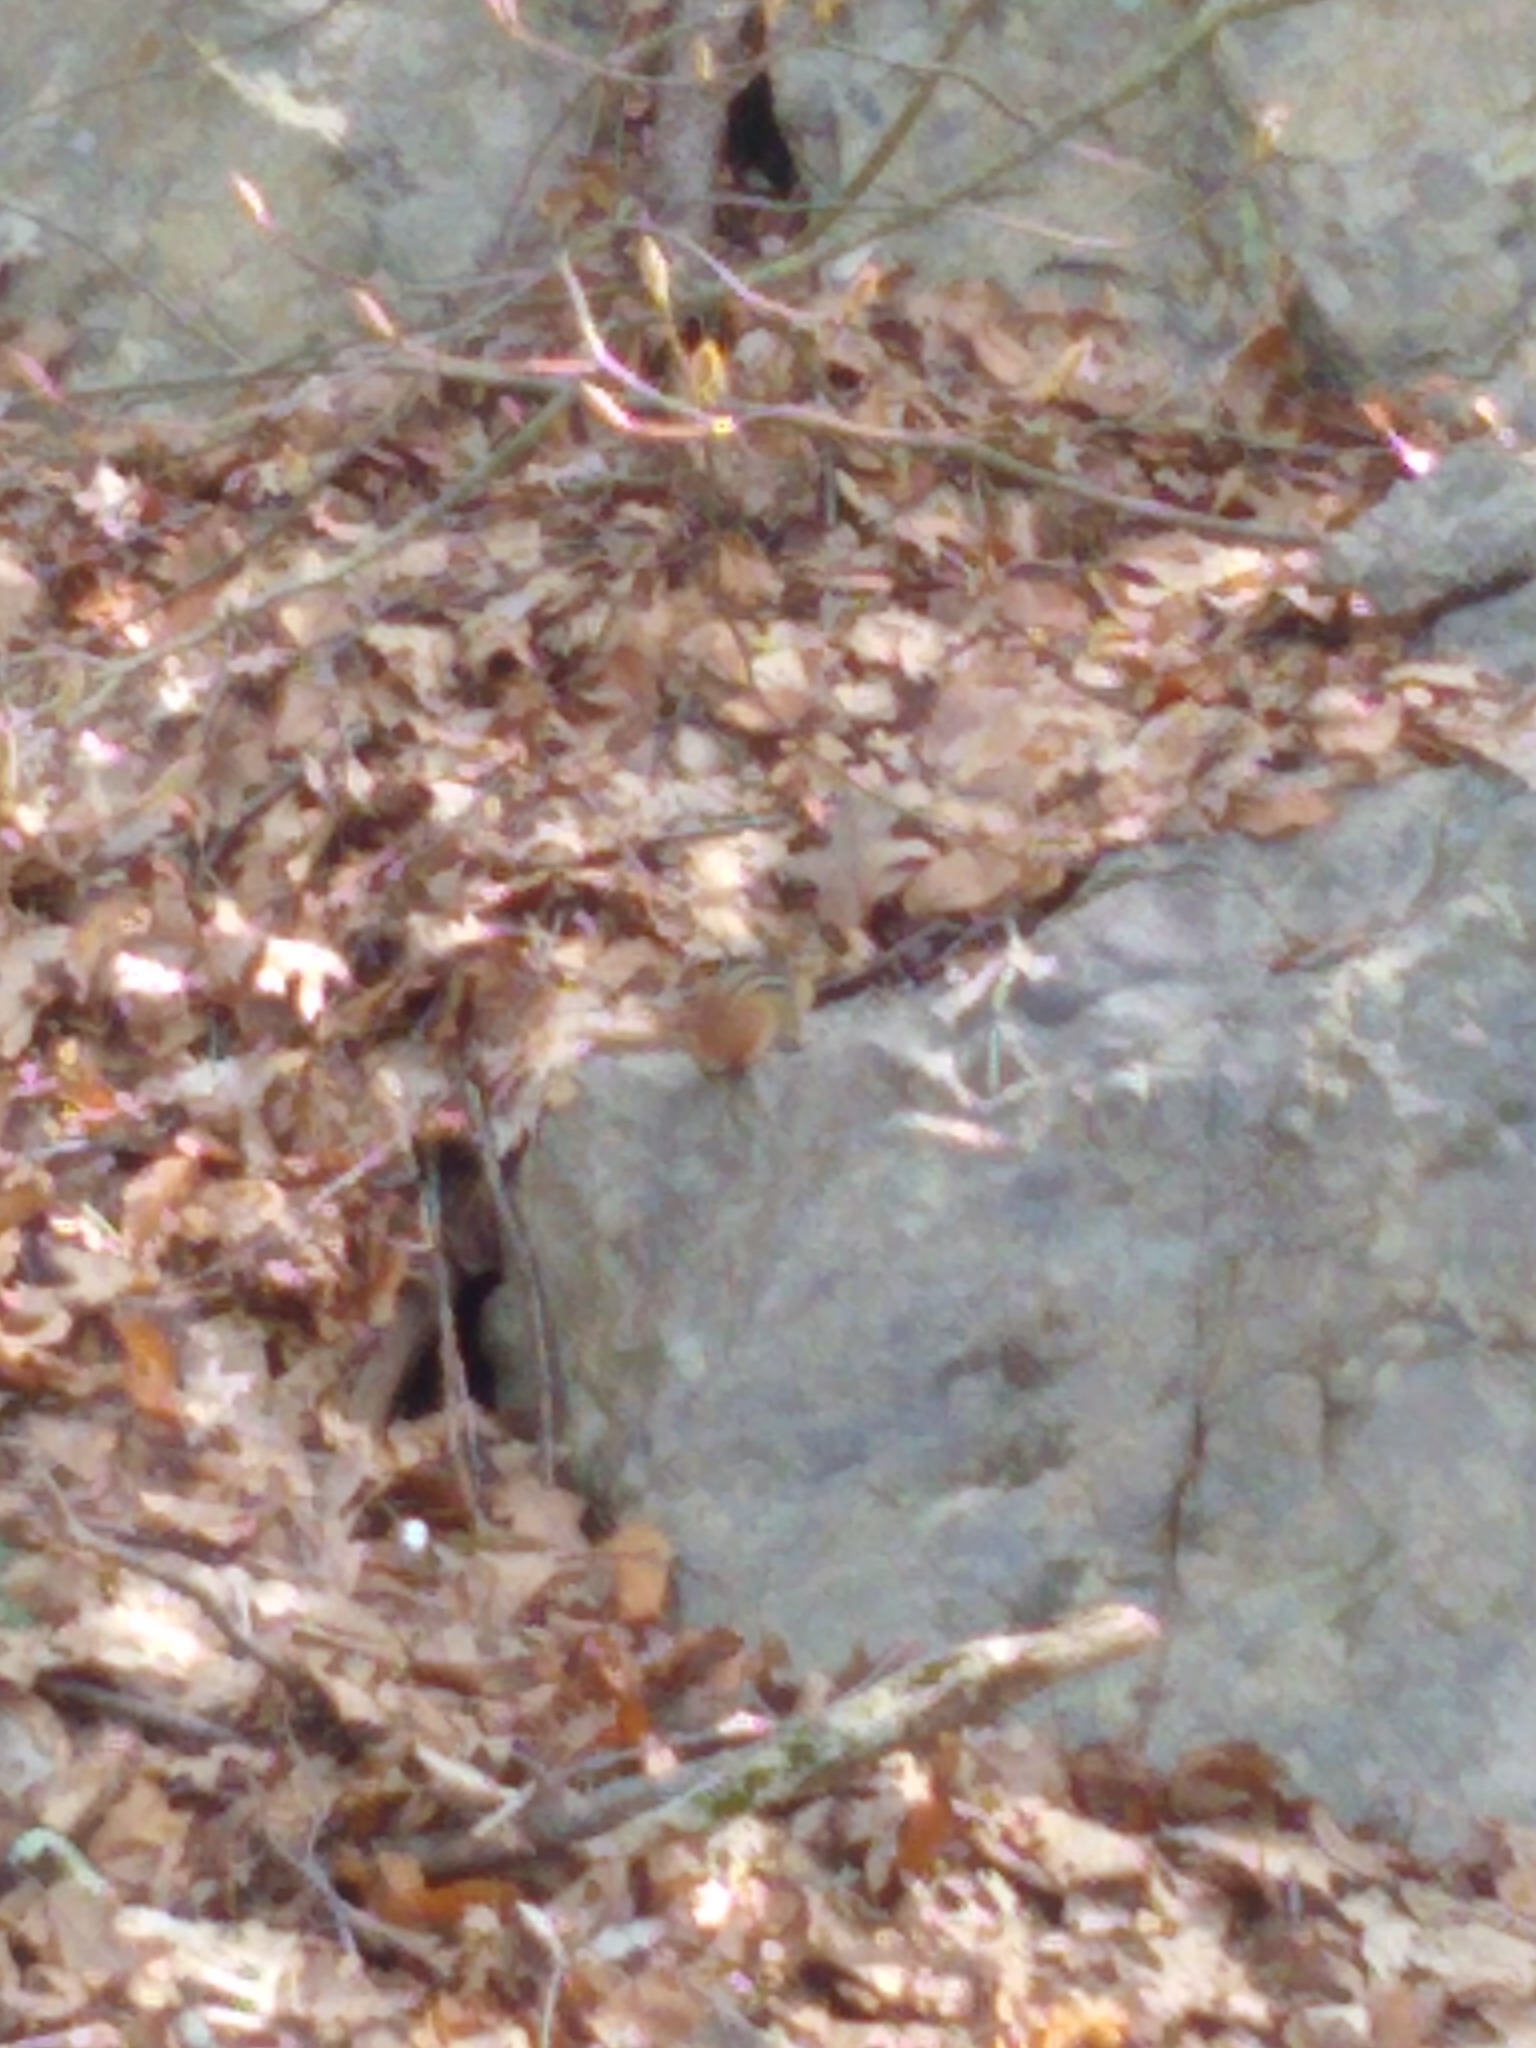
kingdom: Animalia
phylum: Chordata
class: Mammalia
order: Rodentia
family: Sciuridae
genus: Tamias
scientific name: Tamias striatus
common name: Eastern chipmunk
